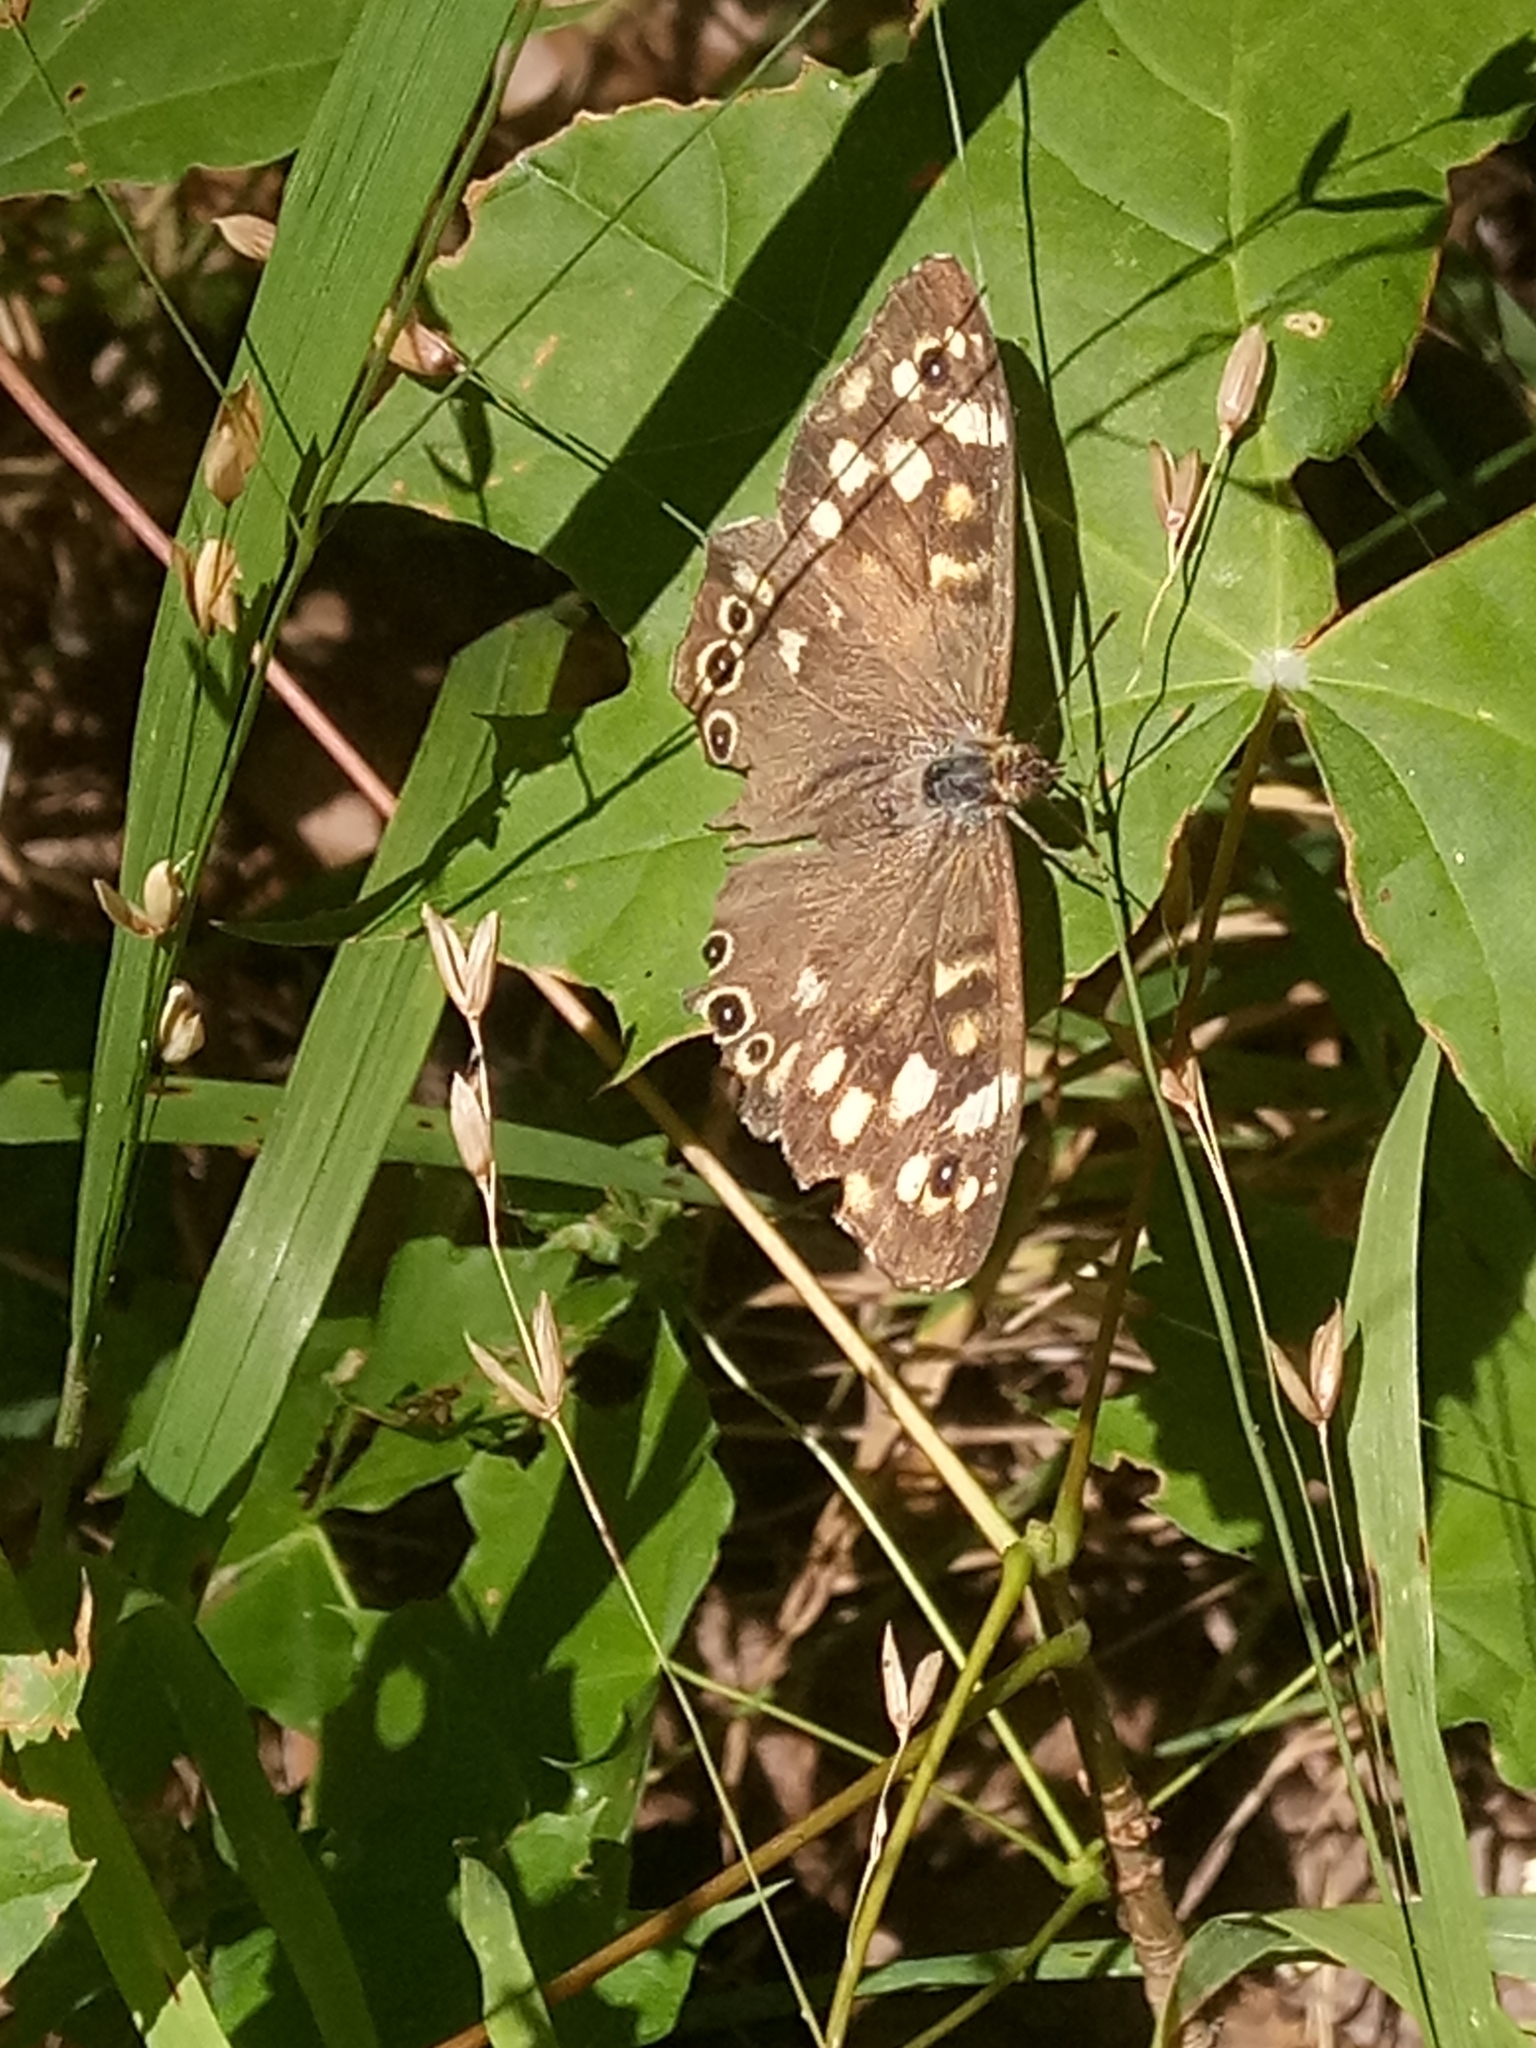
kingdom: Animalia
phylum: Arthropoda
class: Insecta
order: Lepidoptera
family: Nymphalidae
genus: Pararge
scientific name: Pararge aegeria
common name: Speckled wood
